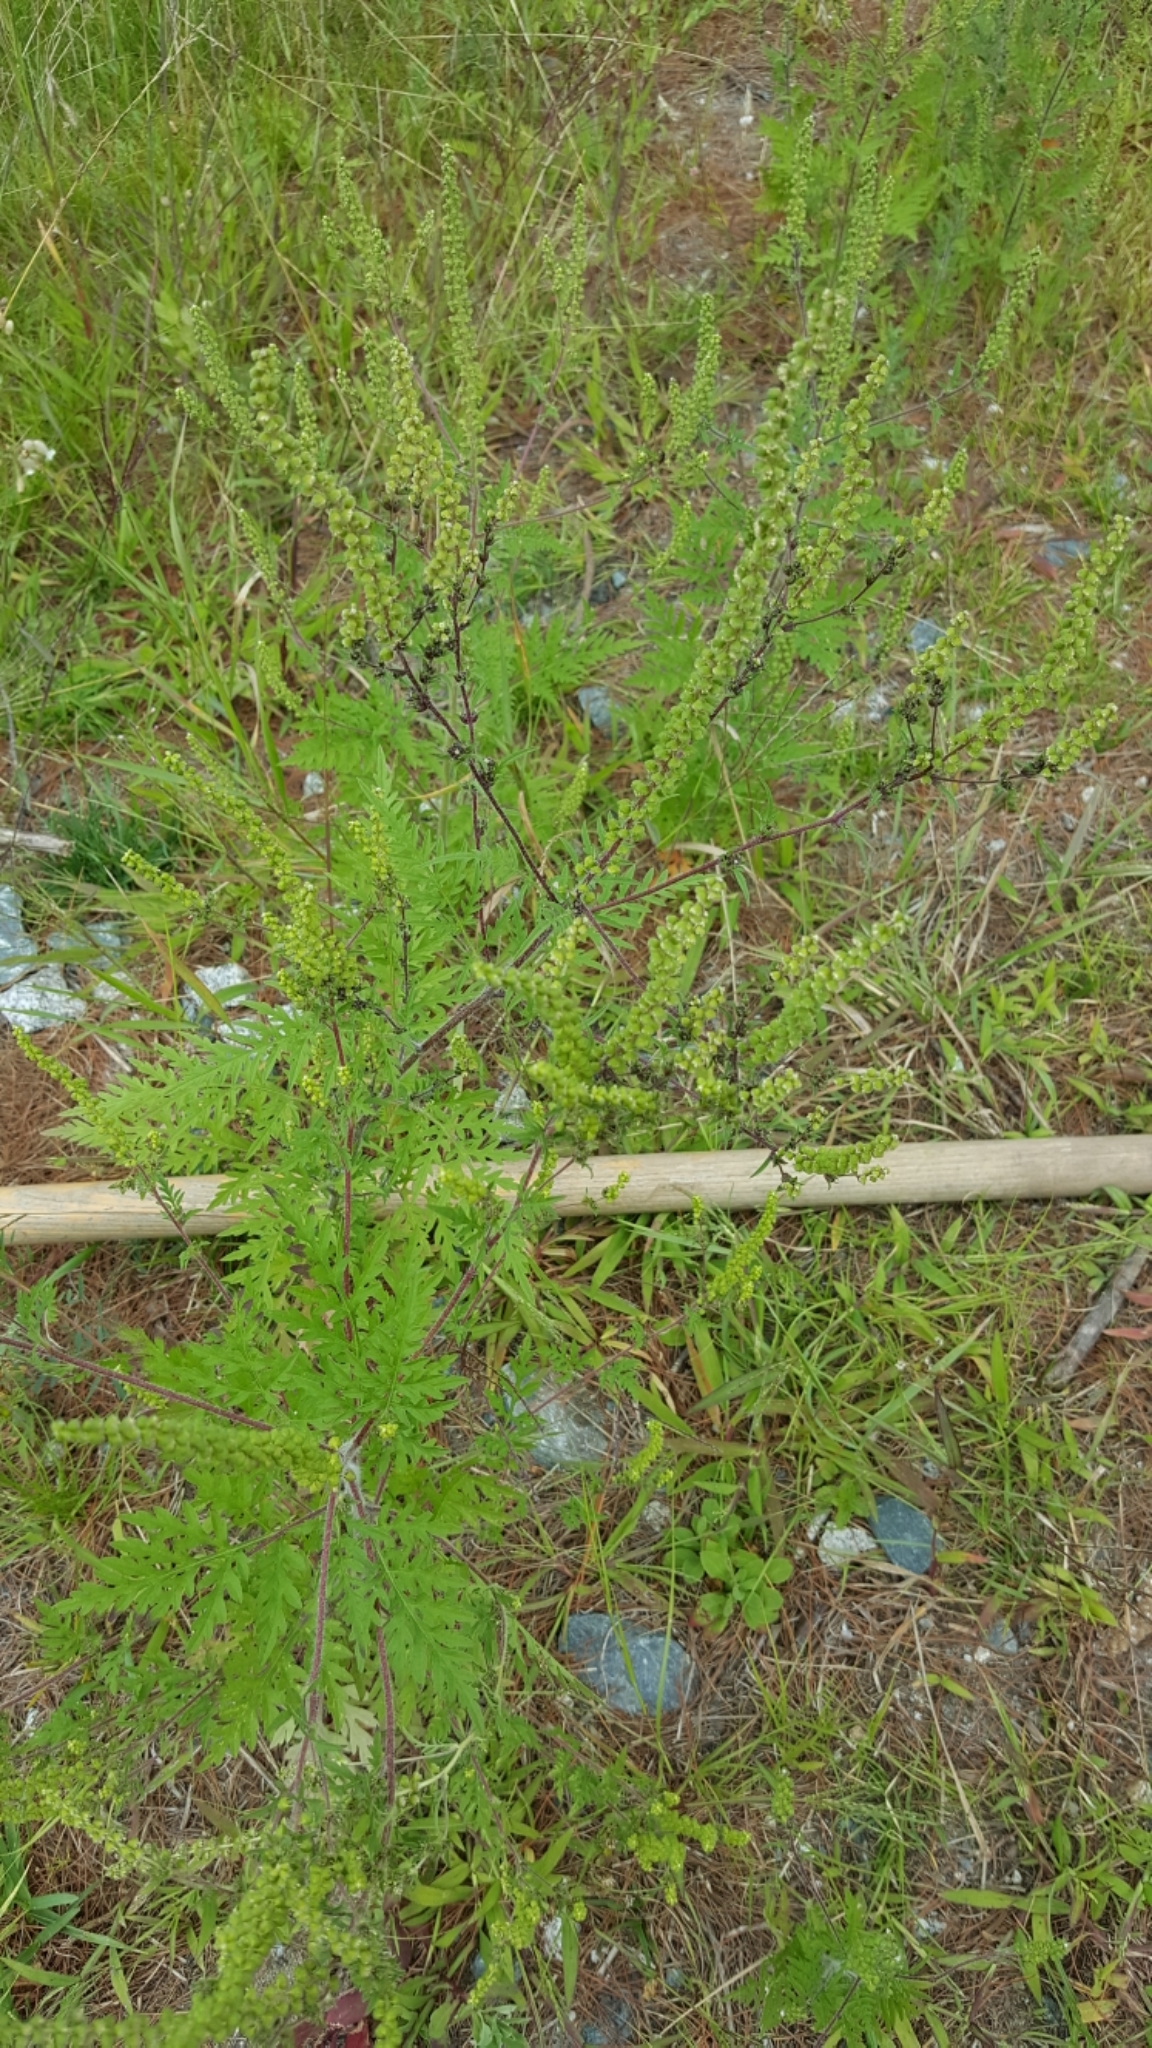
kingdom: Plantae
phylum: Tracheophyta
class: Magnoliopsida
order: Asterales
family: Asteraceae
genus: Ambrosia
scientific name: Ambrosia artemisiifolia
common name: Annual ragweed
